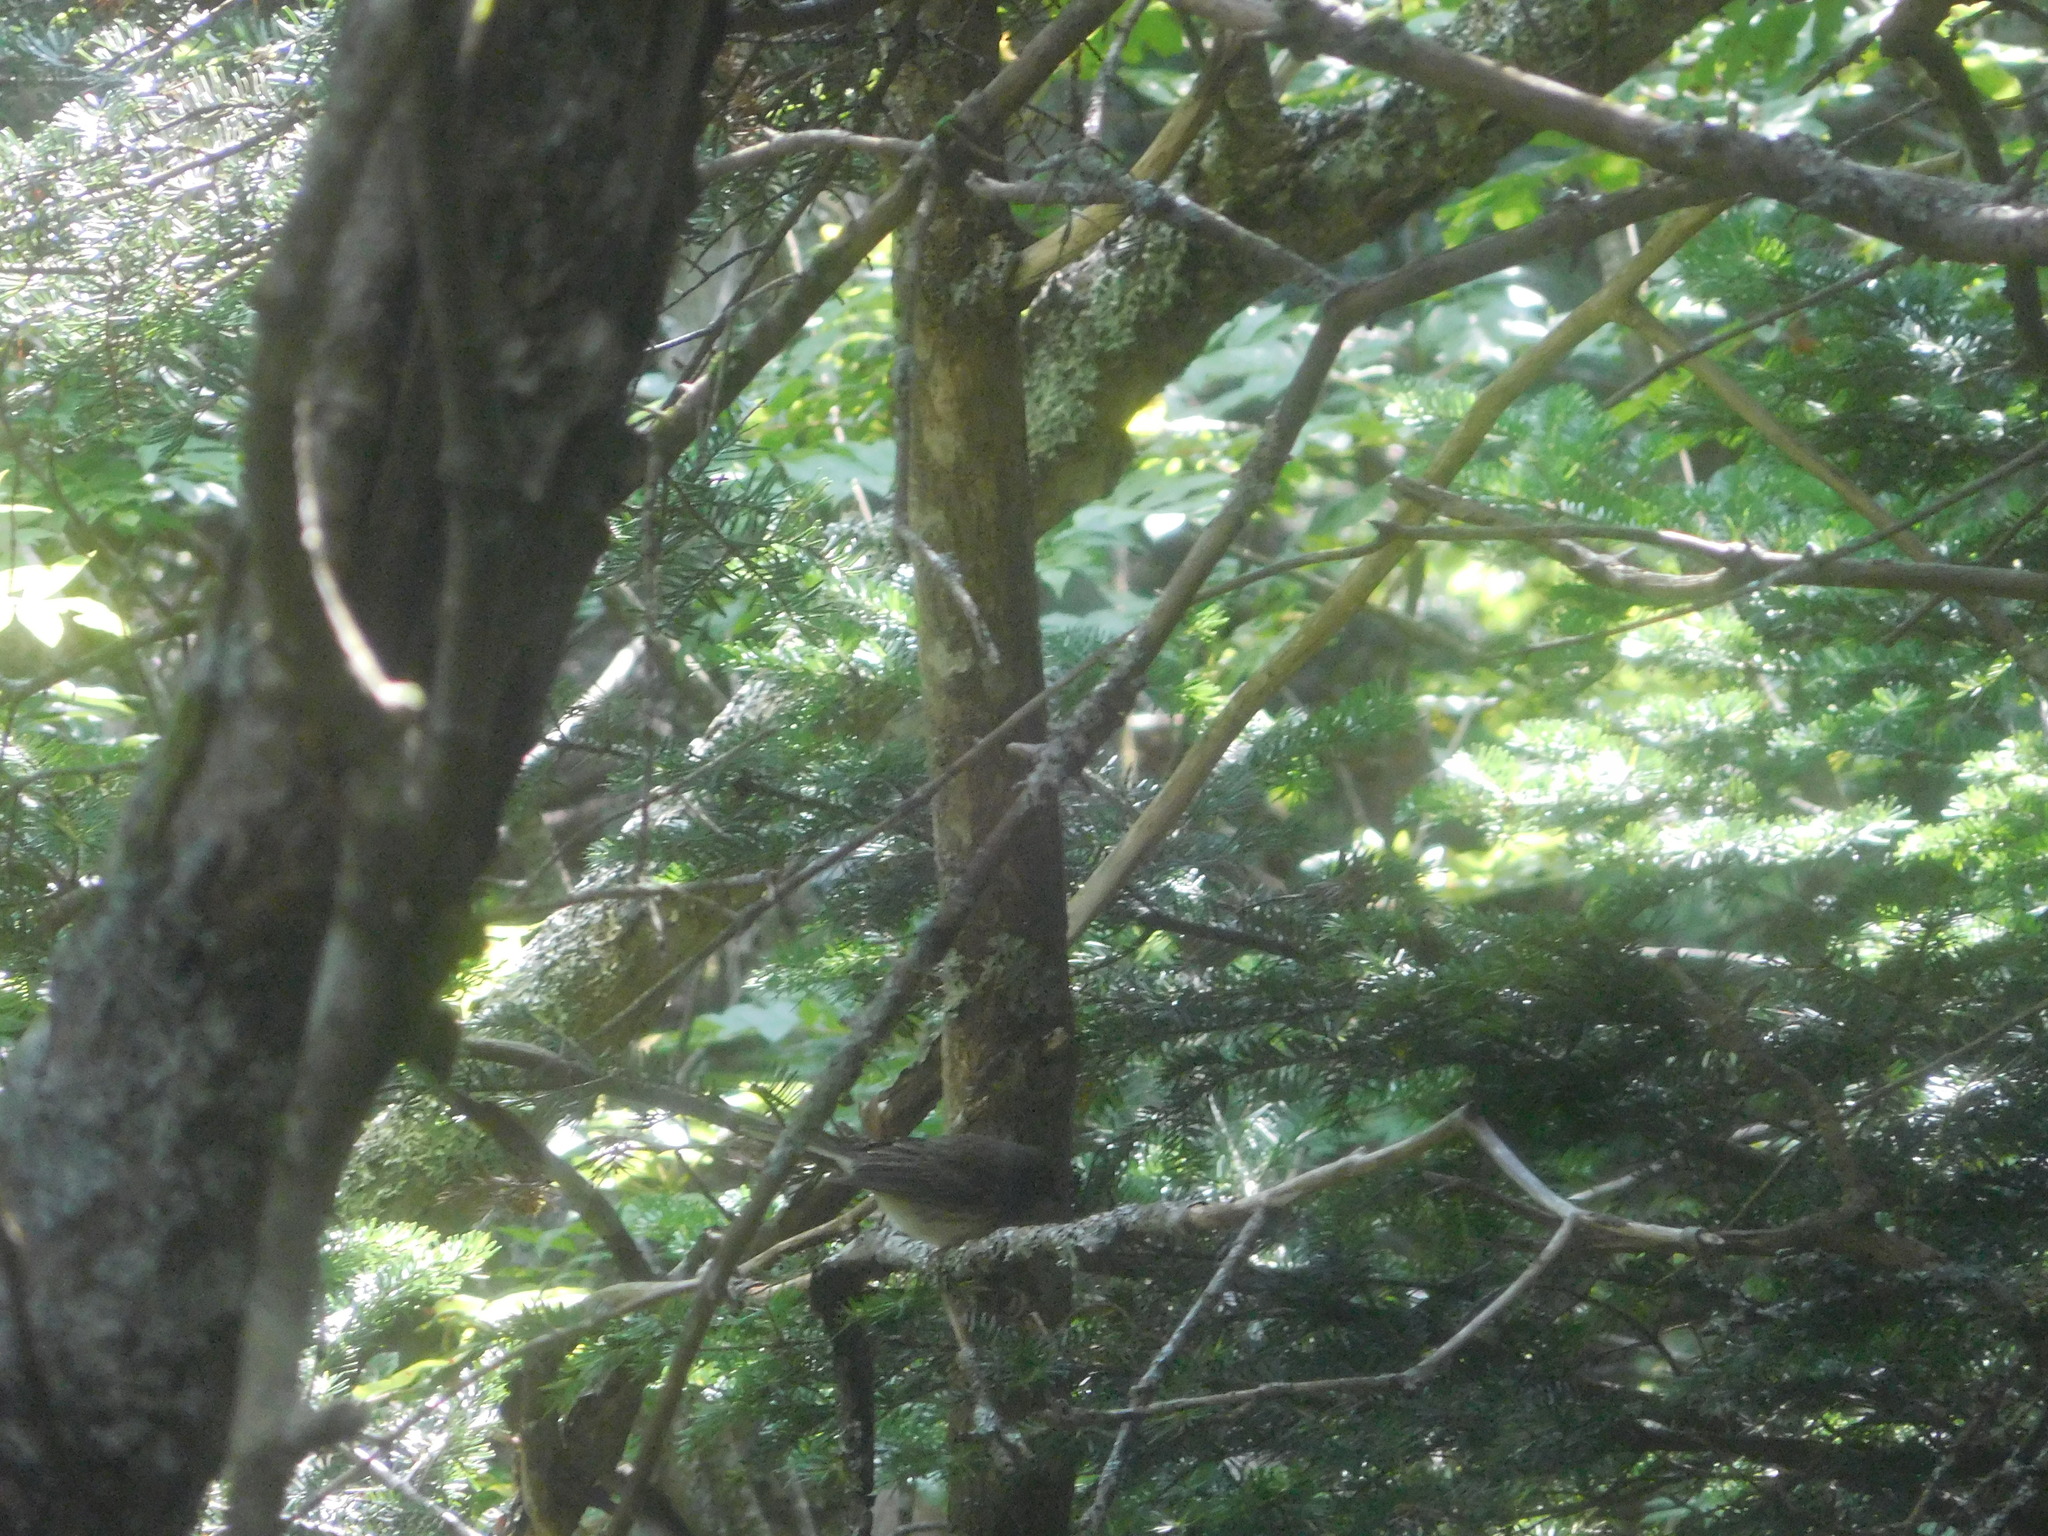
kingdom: Animalia
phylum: Chordata
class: Aves
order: Passeriformes
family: Passerellidae
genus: Junco
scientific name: Junco hyemalis
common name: Dark-eyed junco
